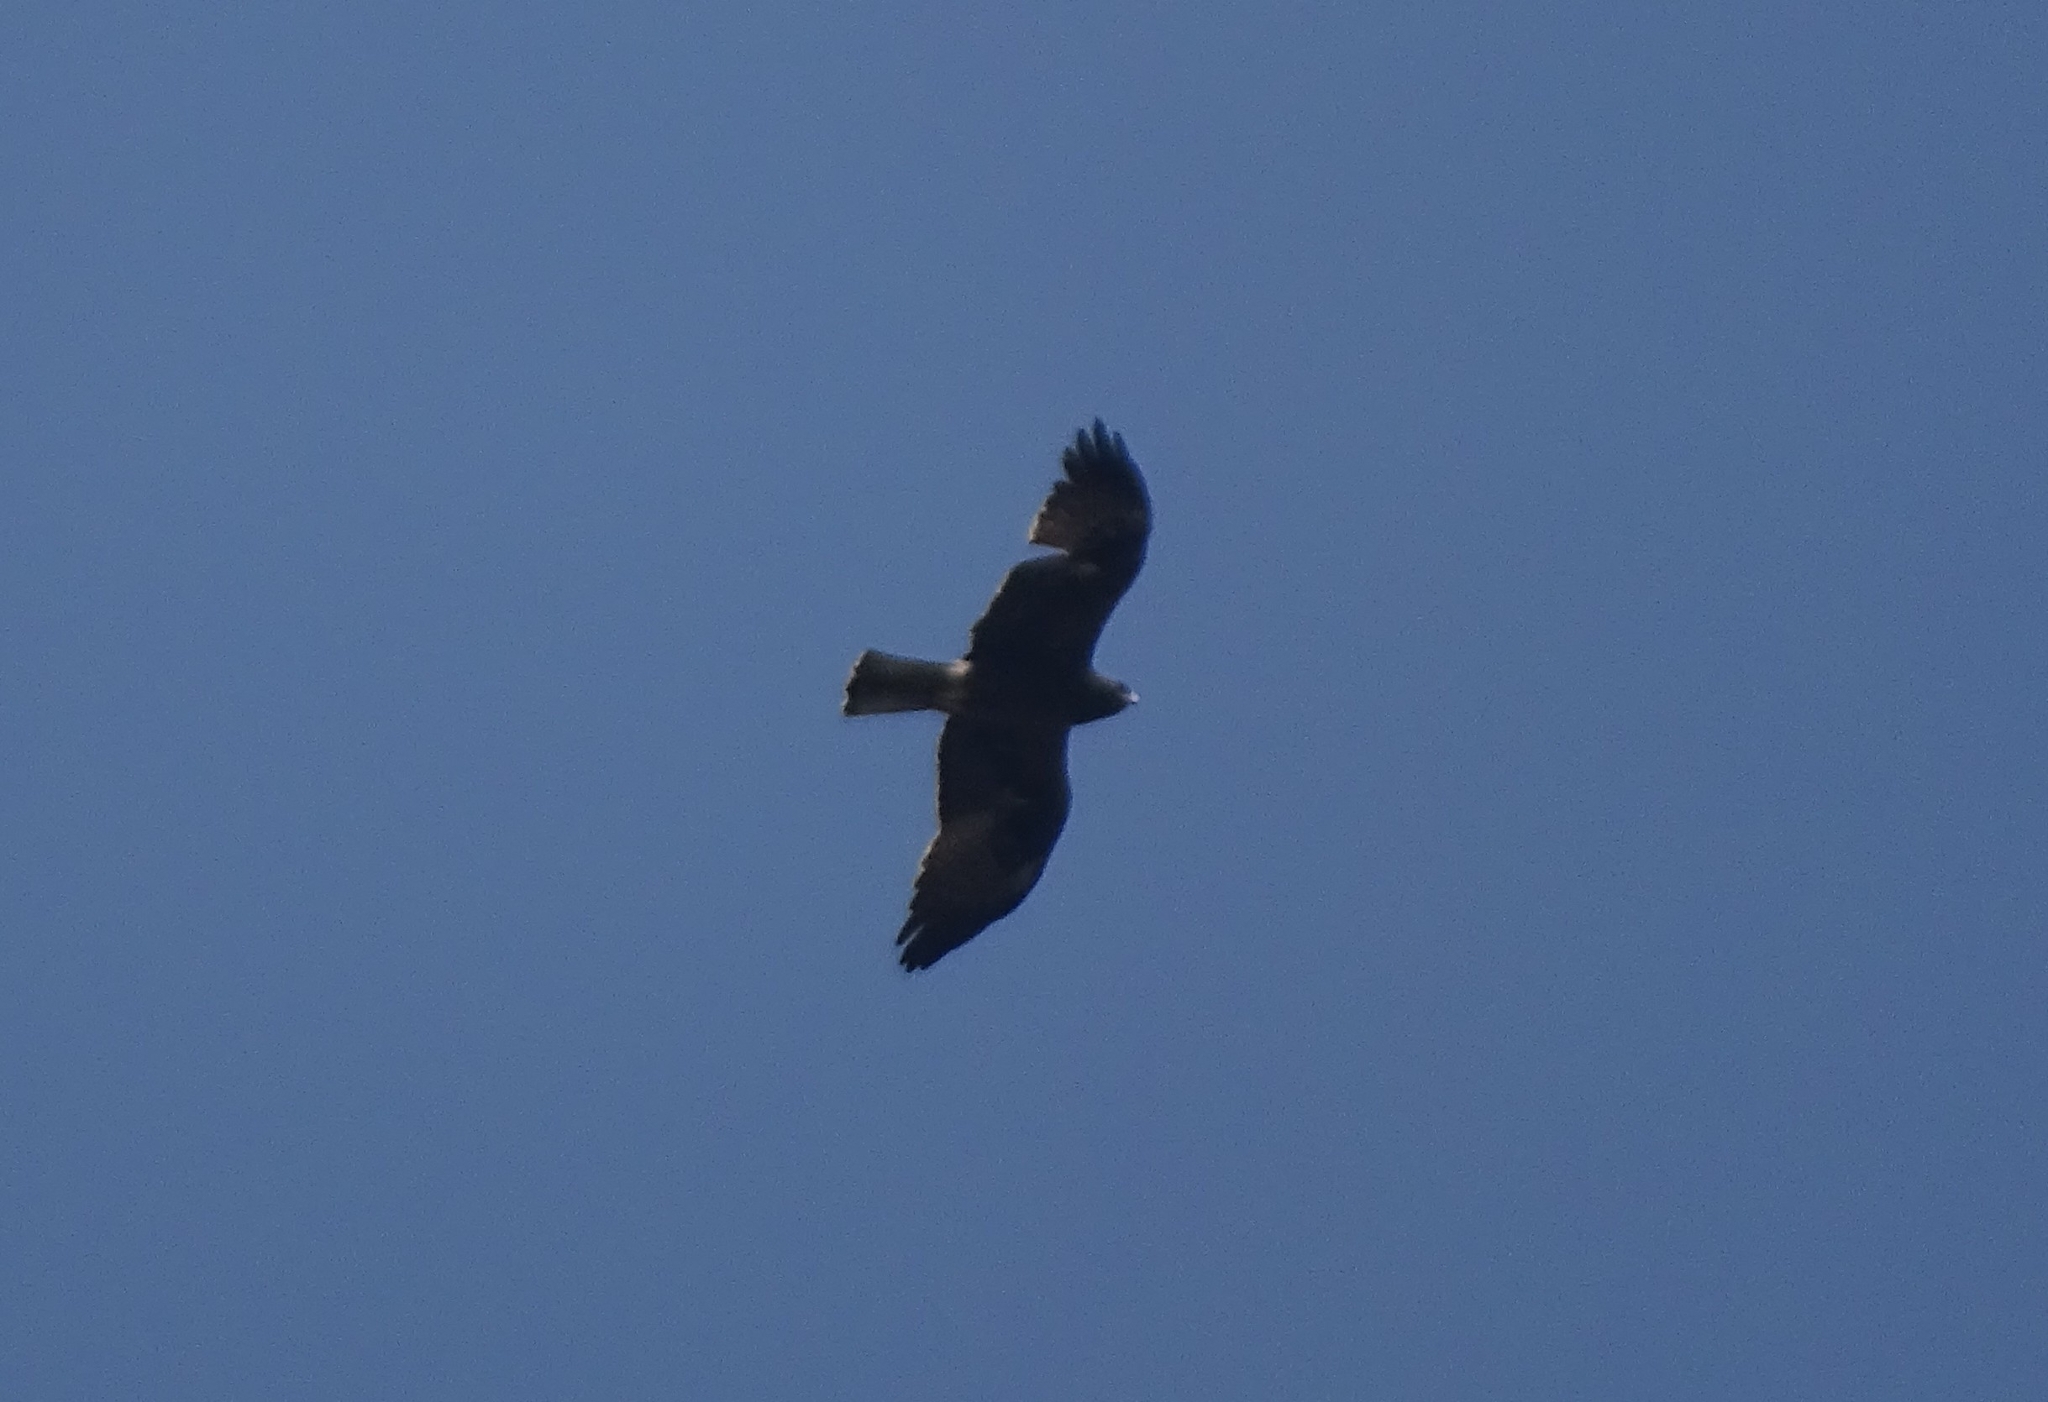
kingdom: Animalia
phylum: Chordata
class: Aves
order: Accipitriformes
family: Accipitridae
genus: Hieraaetus
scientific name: Hieraaetus pennatus
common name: Booted eagle
